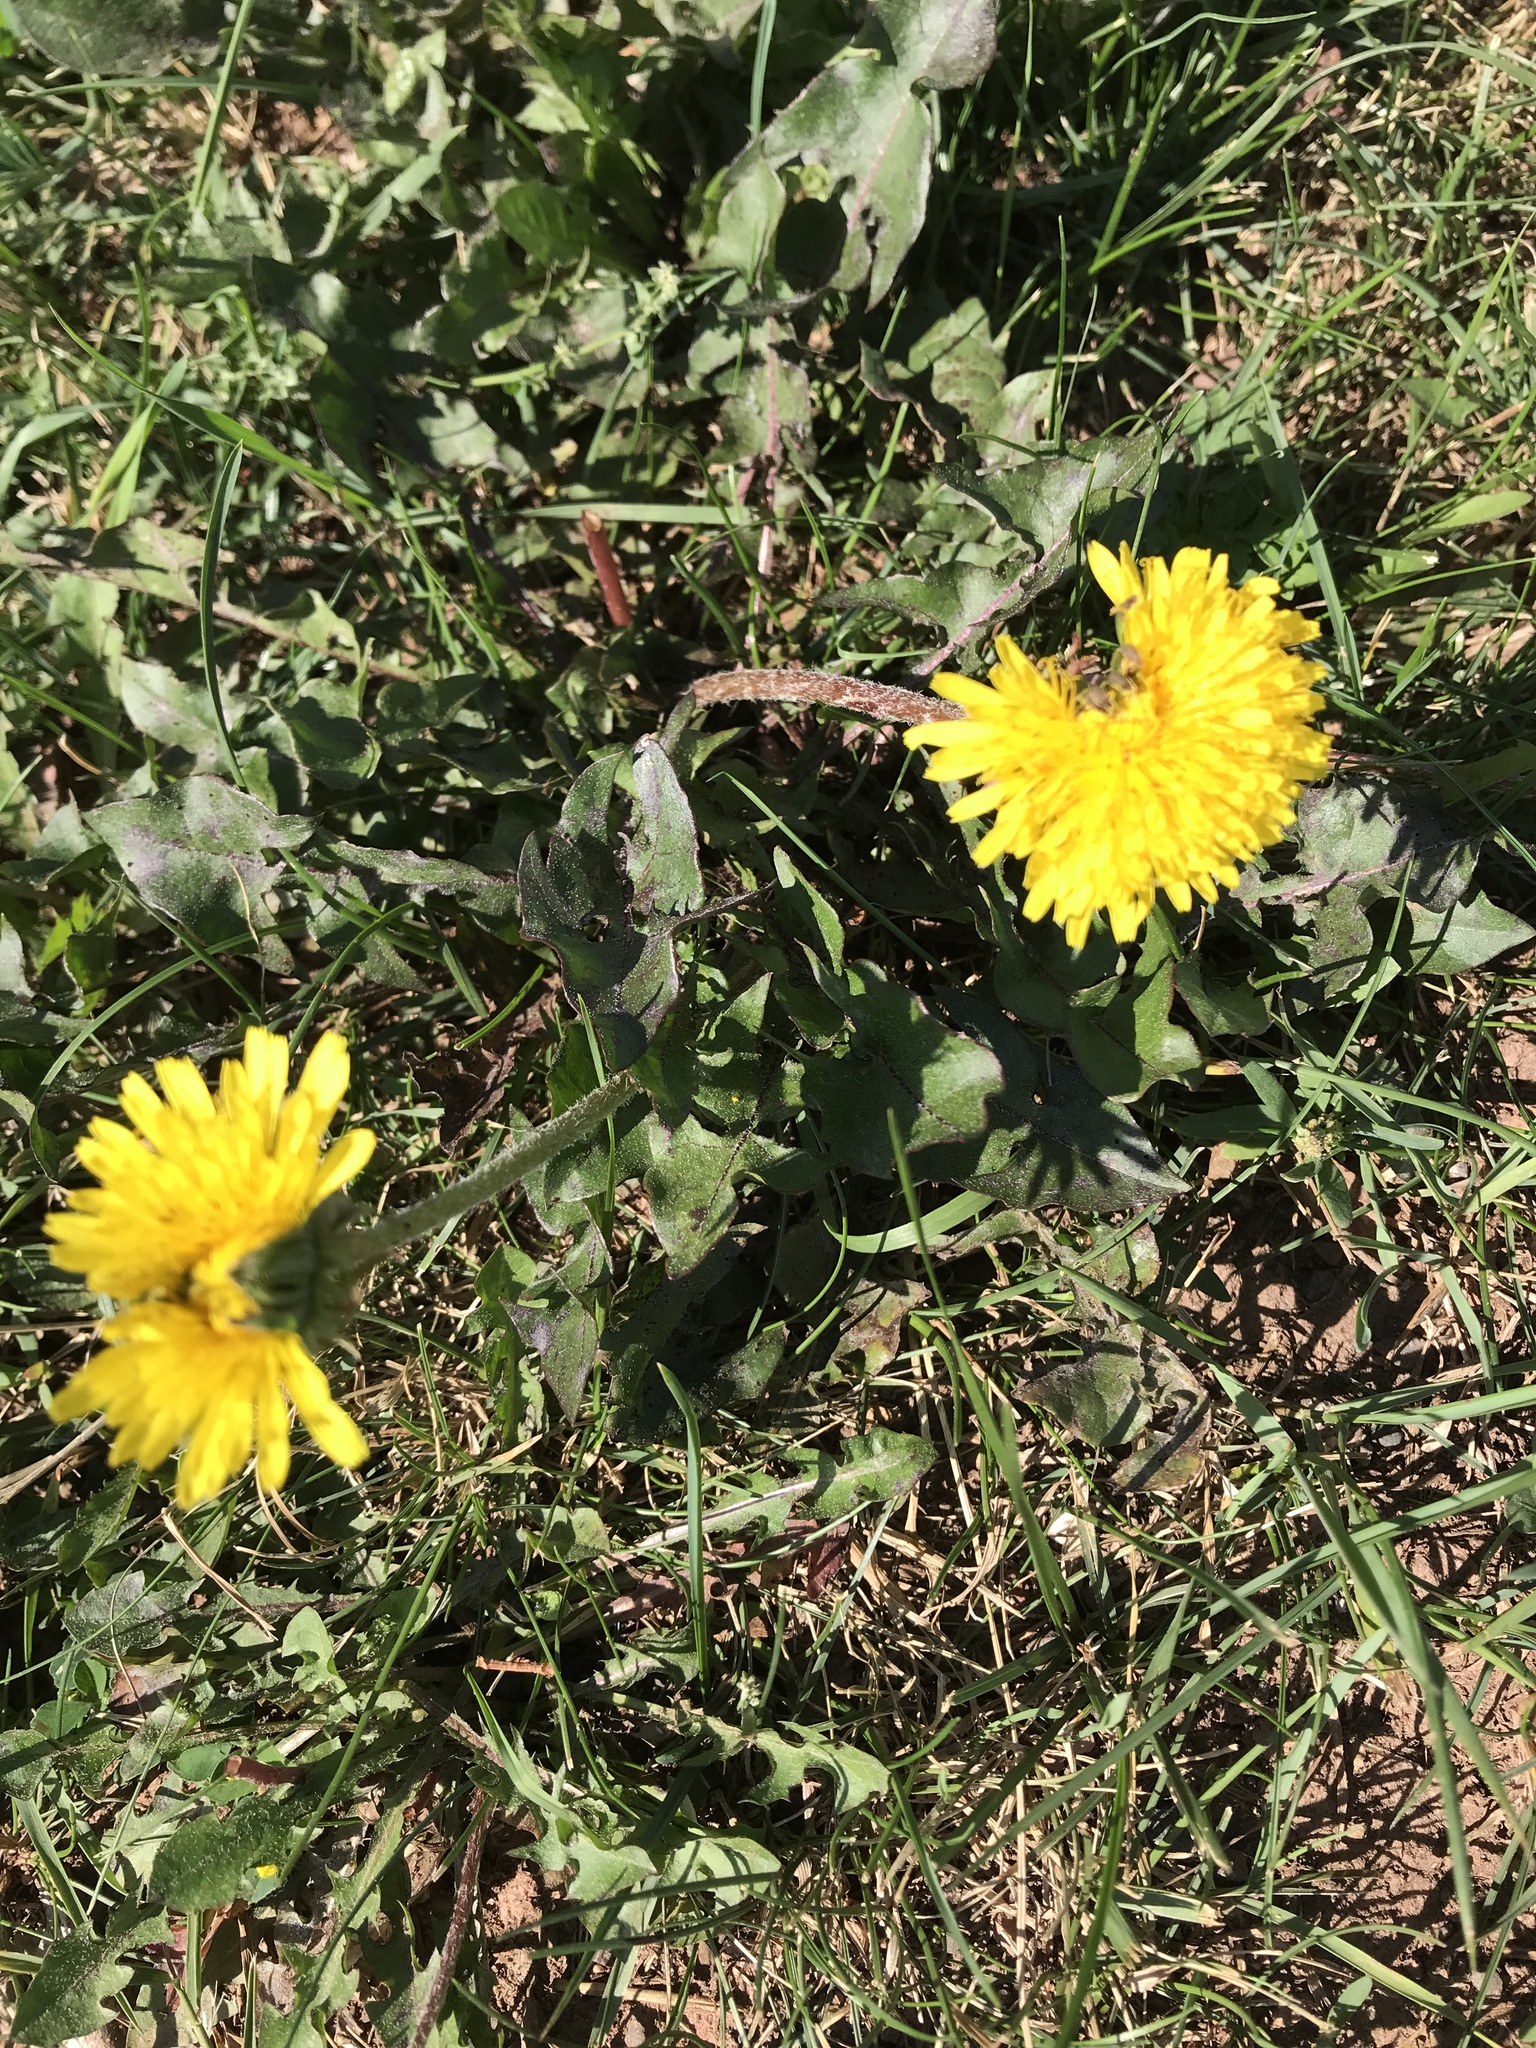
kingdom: Plantae
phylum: Tracheophyta
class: Magnoliopsida
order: Asterales
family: Asteraceae
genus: Taraxacum
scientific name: Taraxacum officinale
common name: Common dandelion
